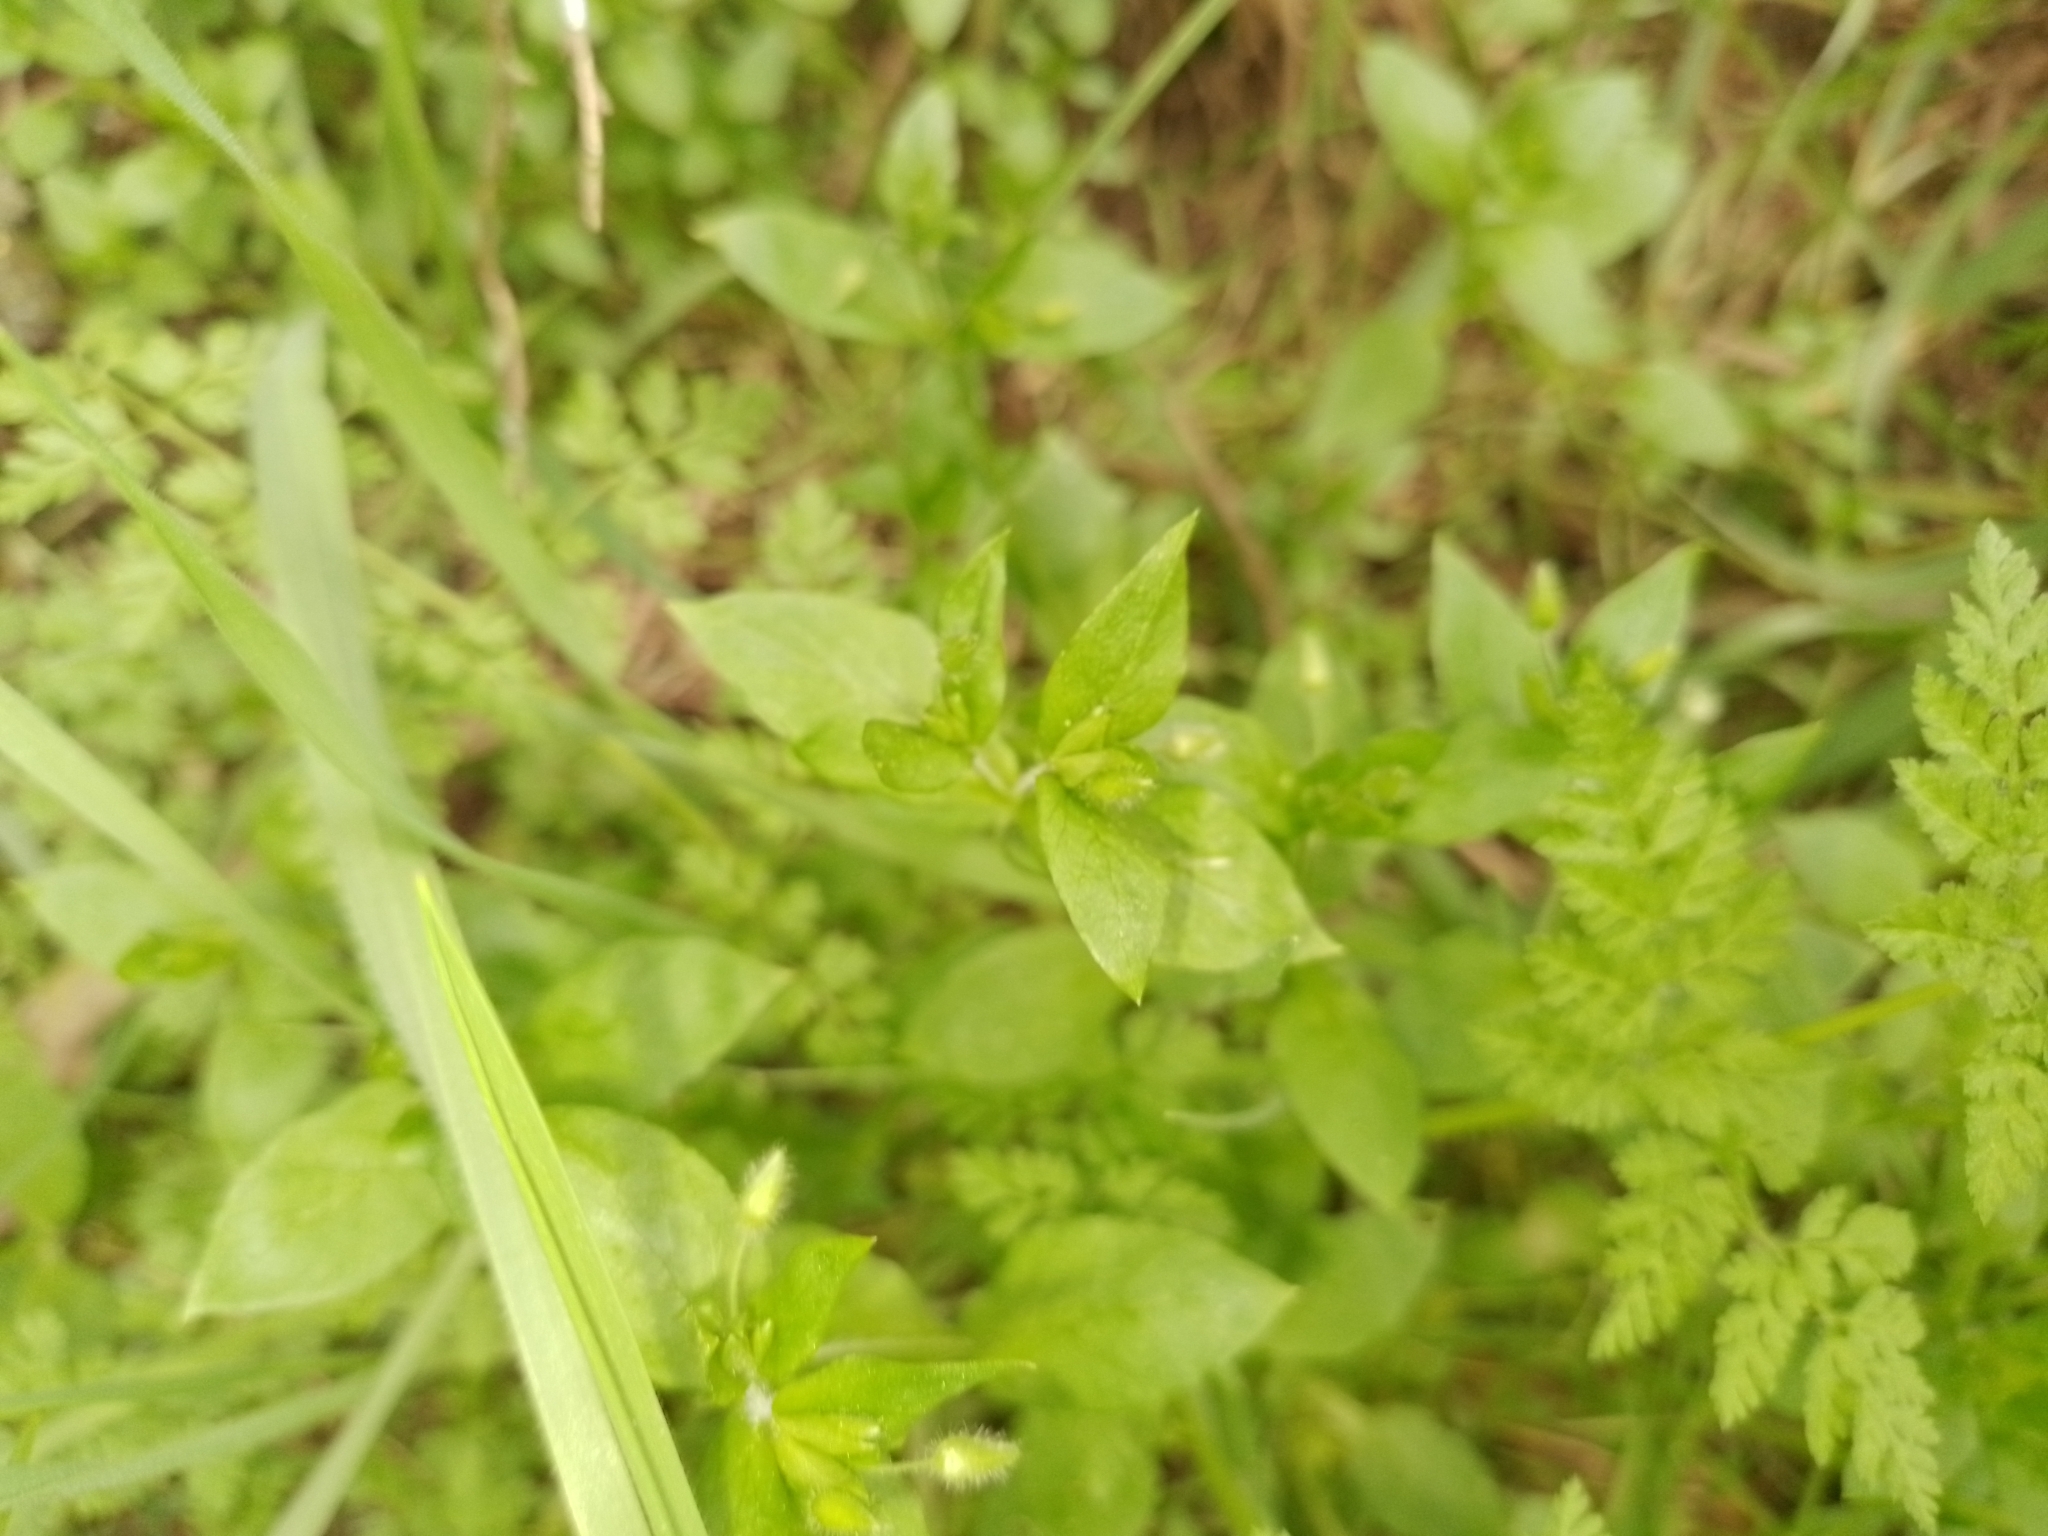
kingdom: Plantae
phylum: Tracheophyta
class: Magnoliopsida
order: Caryophyllales
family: Caryophyllaceae
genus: Stellaria
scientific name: Stellaria media
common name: Common chickweed
